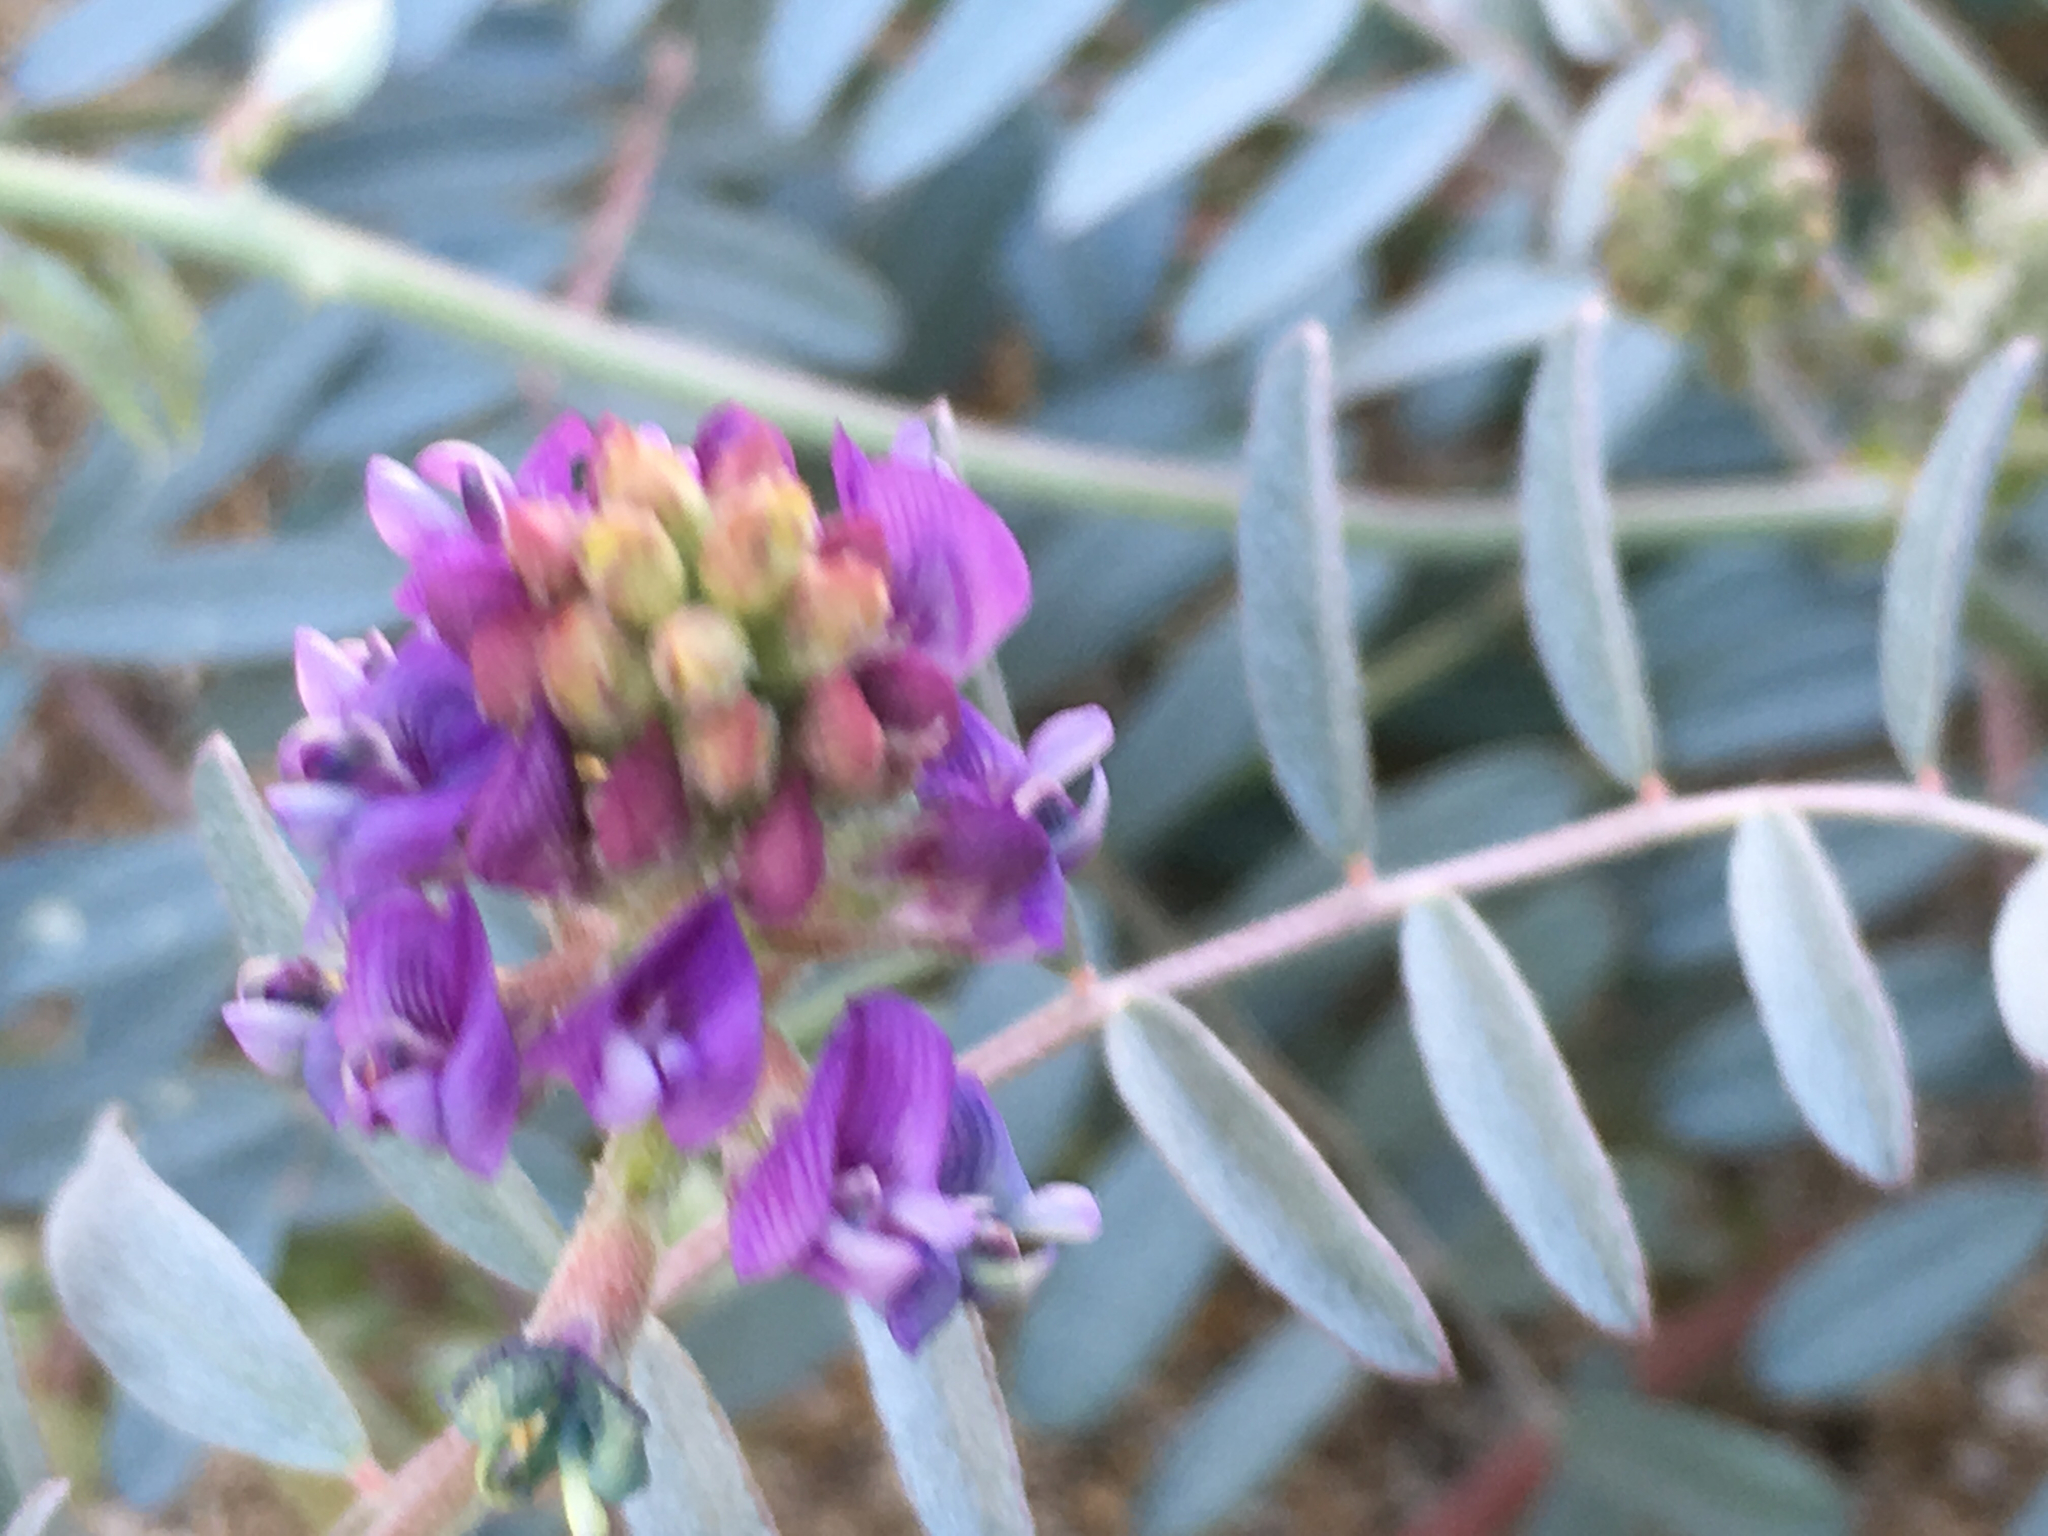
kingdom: Plantae
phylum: Tracheophyta
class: Magnoliopsida
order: Fabales
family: Fabaceae
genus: Astragalus
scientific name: Astragalus palmeri
